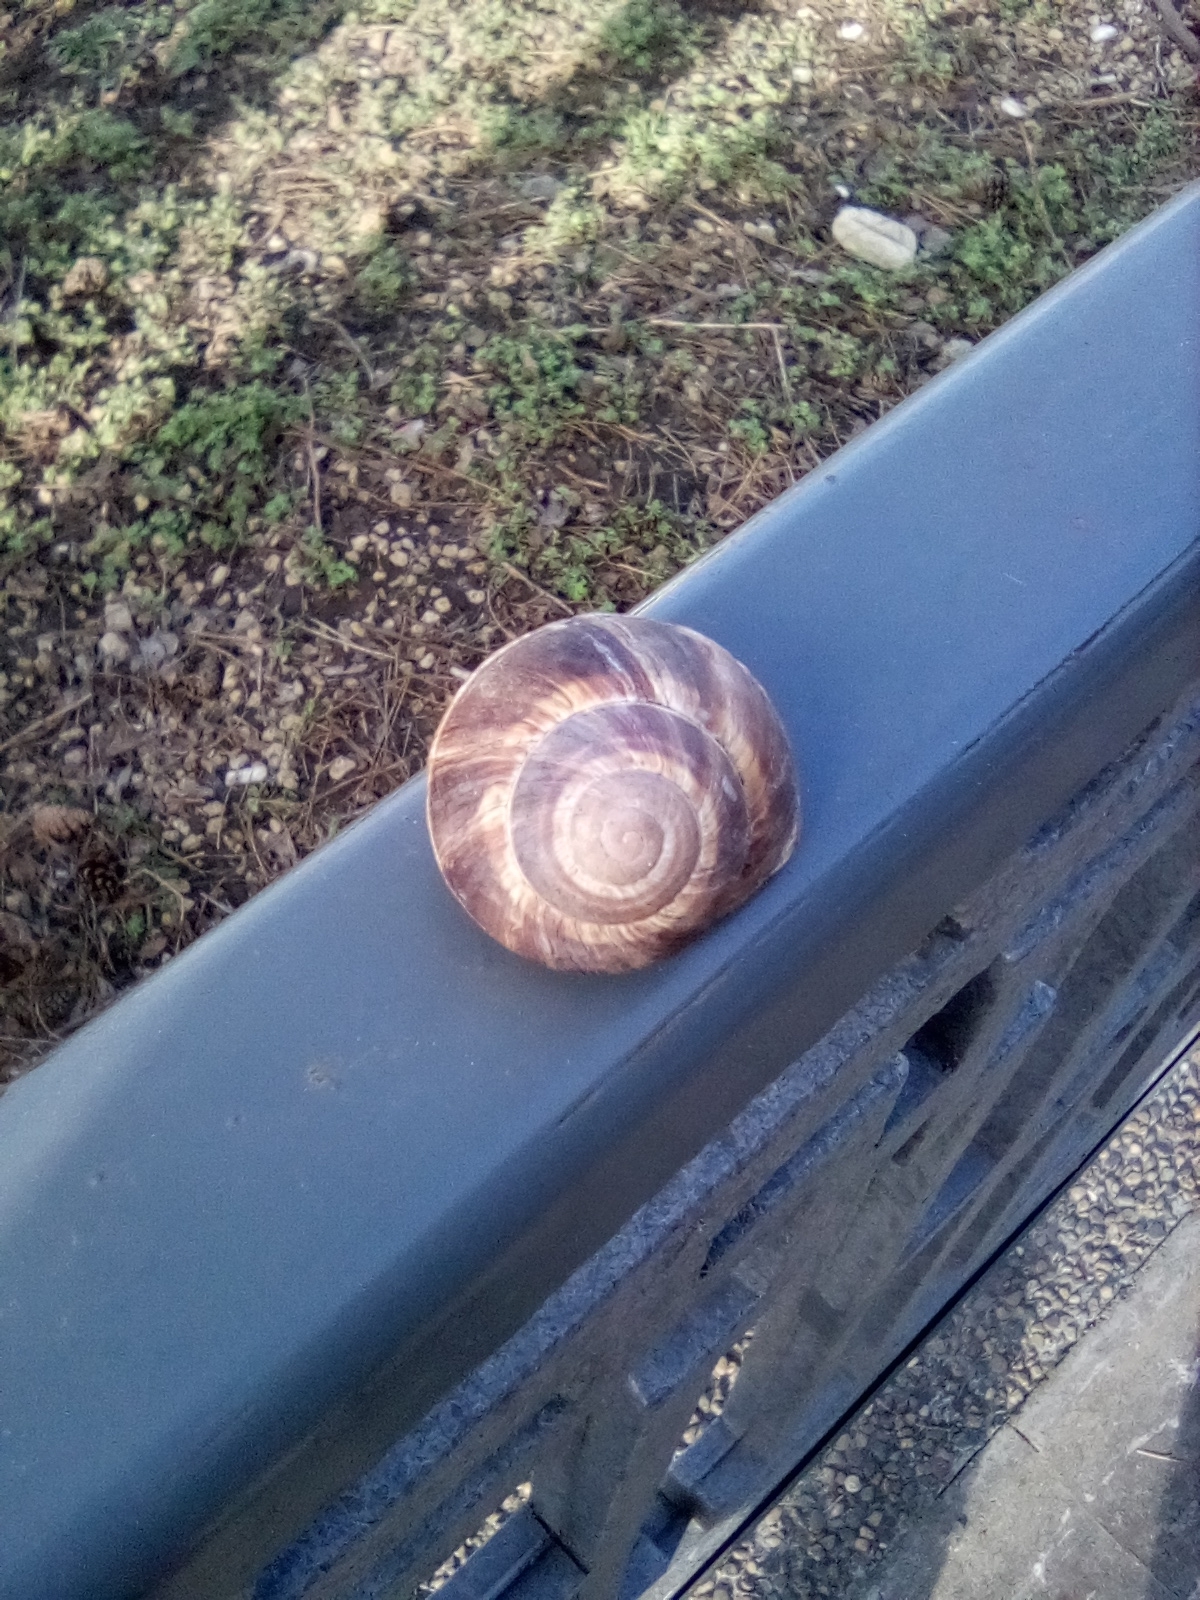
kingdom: Animalia
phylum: Mollusca
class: Gastropoda
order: Stylommatophora
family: Helicidae
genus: Helix
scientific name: Helix lucorum
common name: Turkish snail
